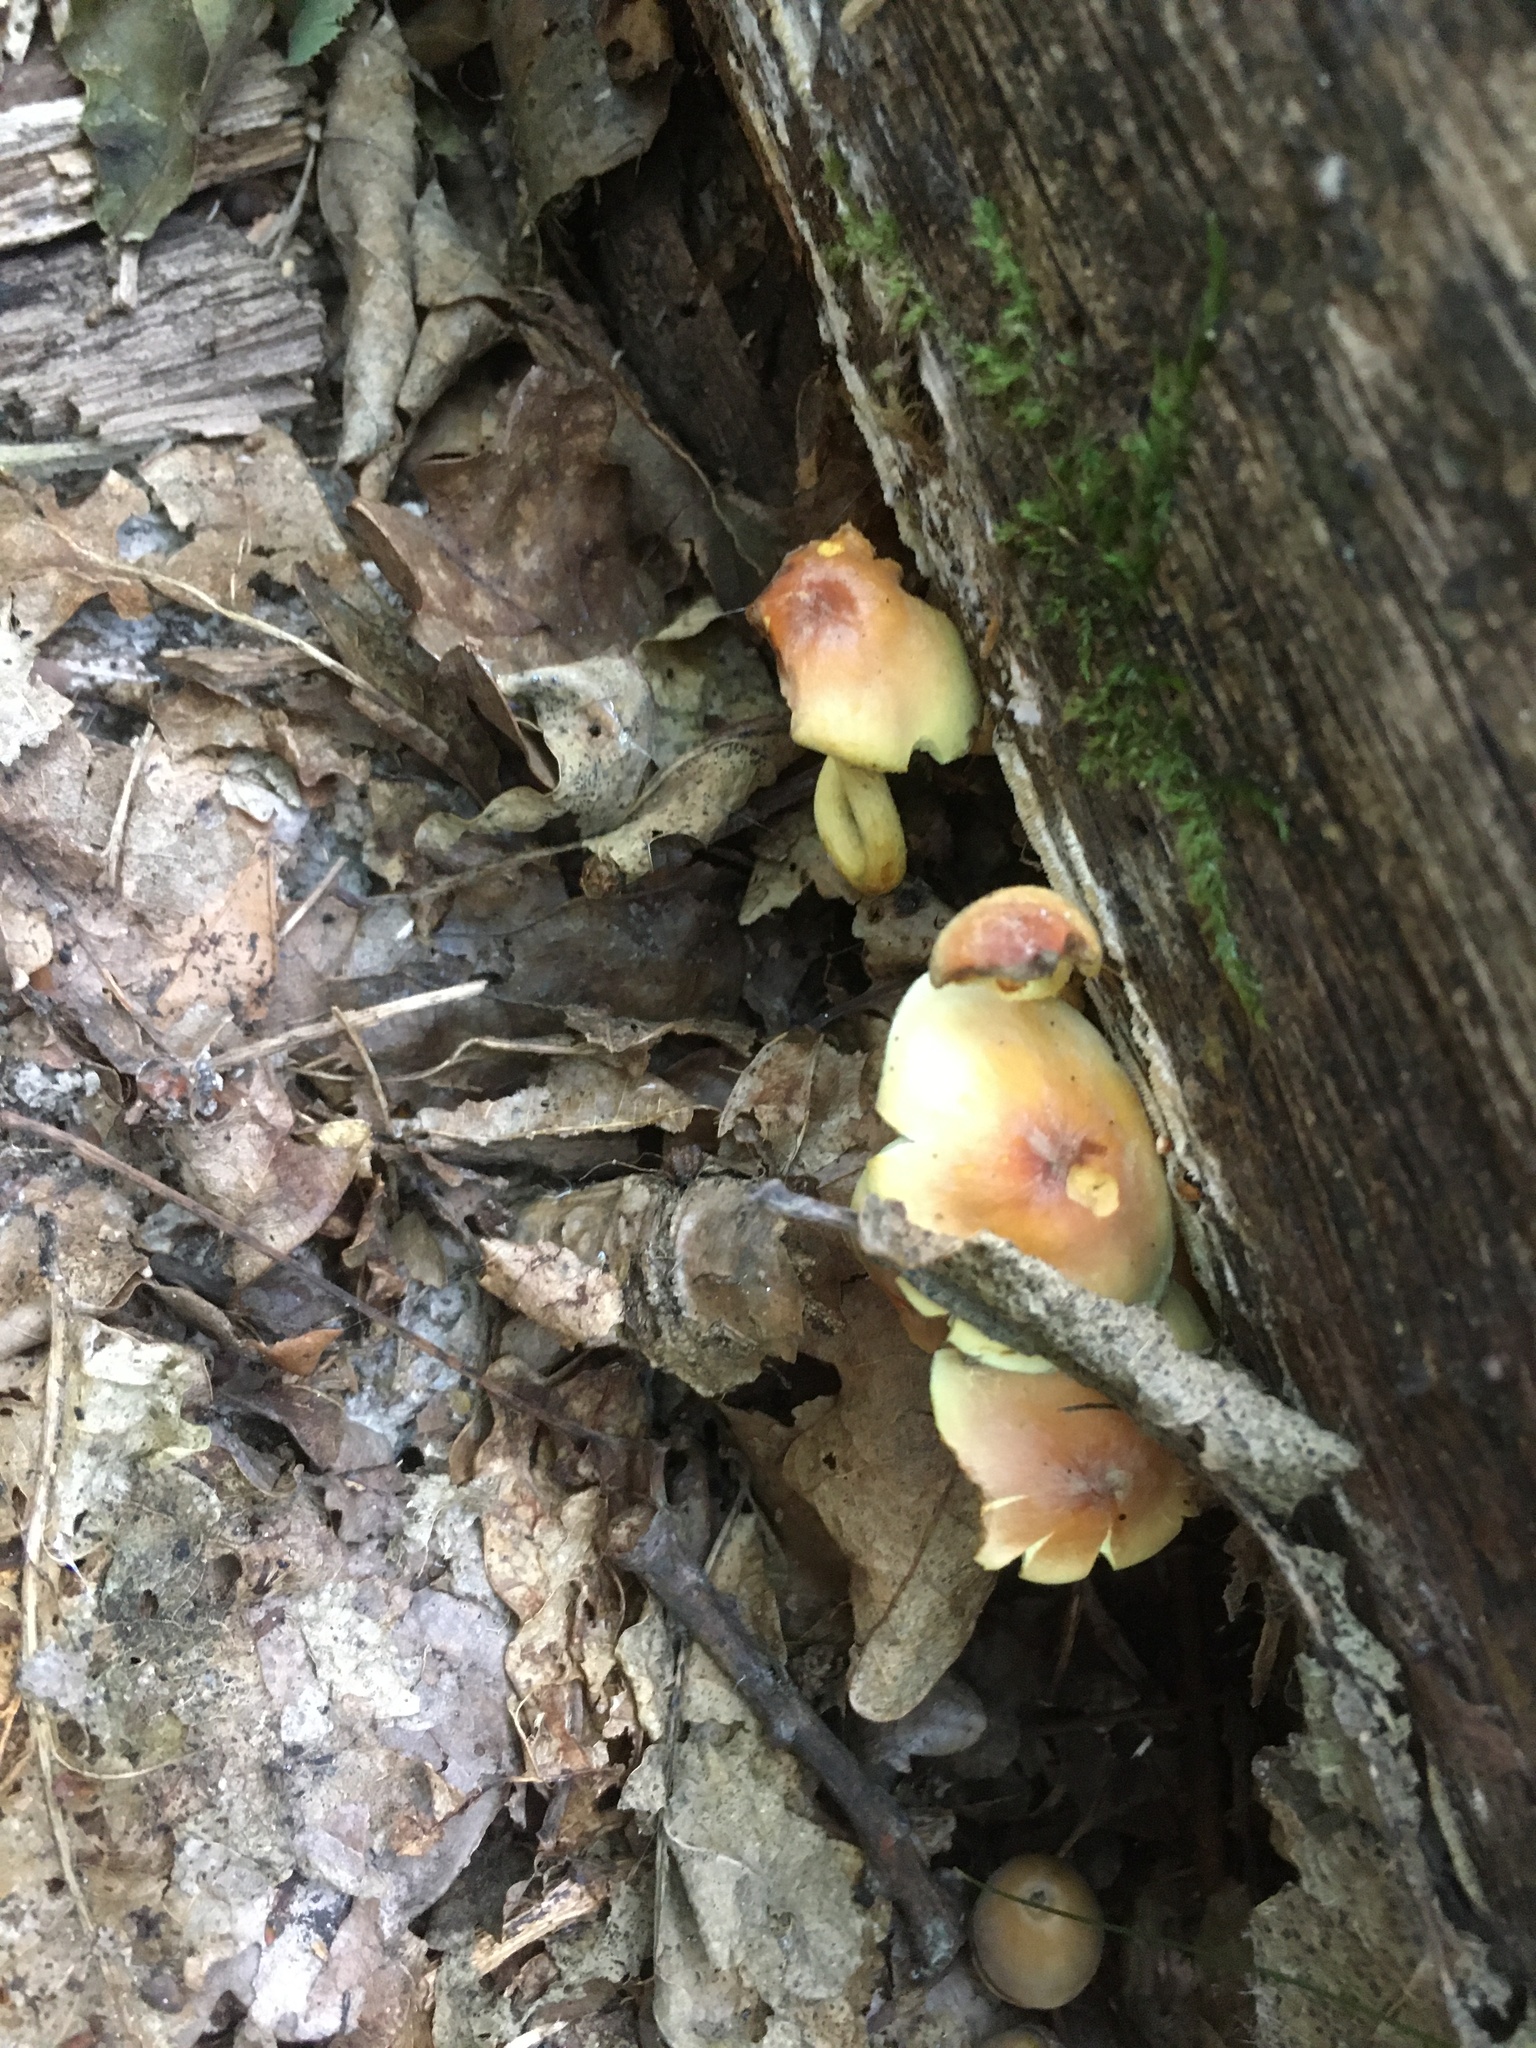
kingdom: Fungi
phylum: Basidiomycota
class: Agaricomycetes
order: Agaricales
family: Strophariaceae
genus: Hypholoma
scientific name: Hypholoma fasciculare
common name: Sulphur tuft
